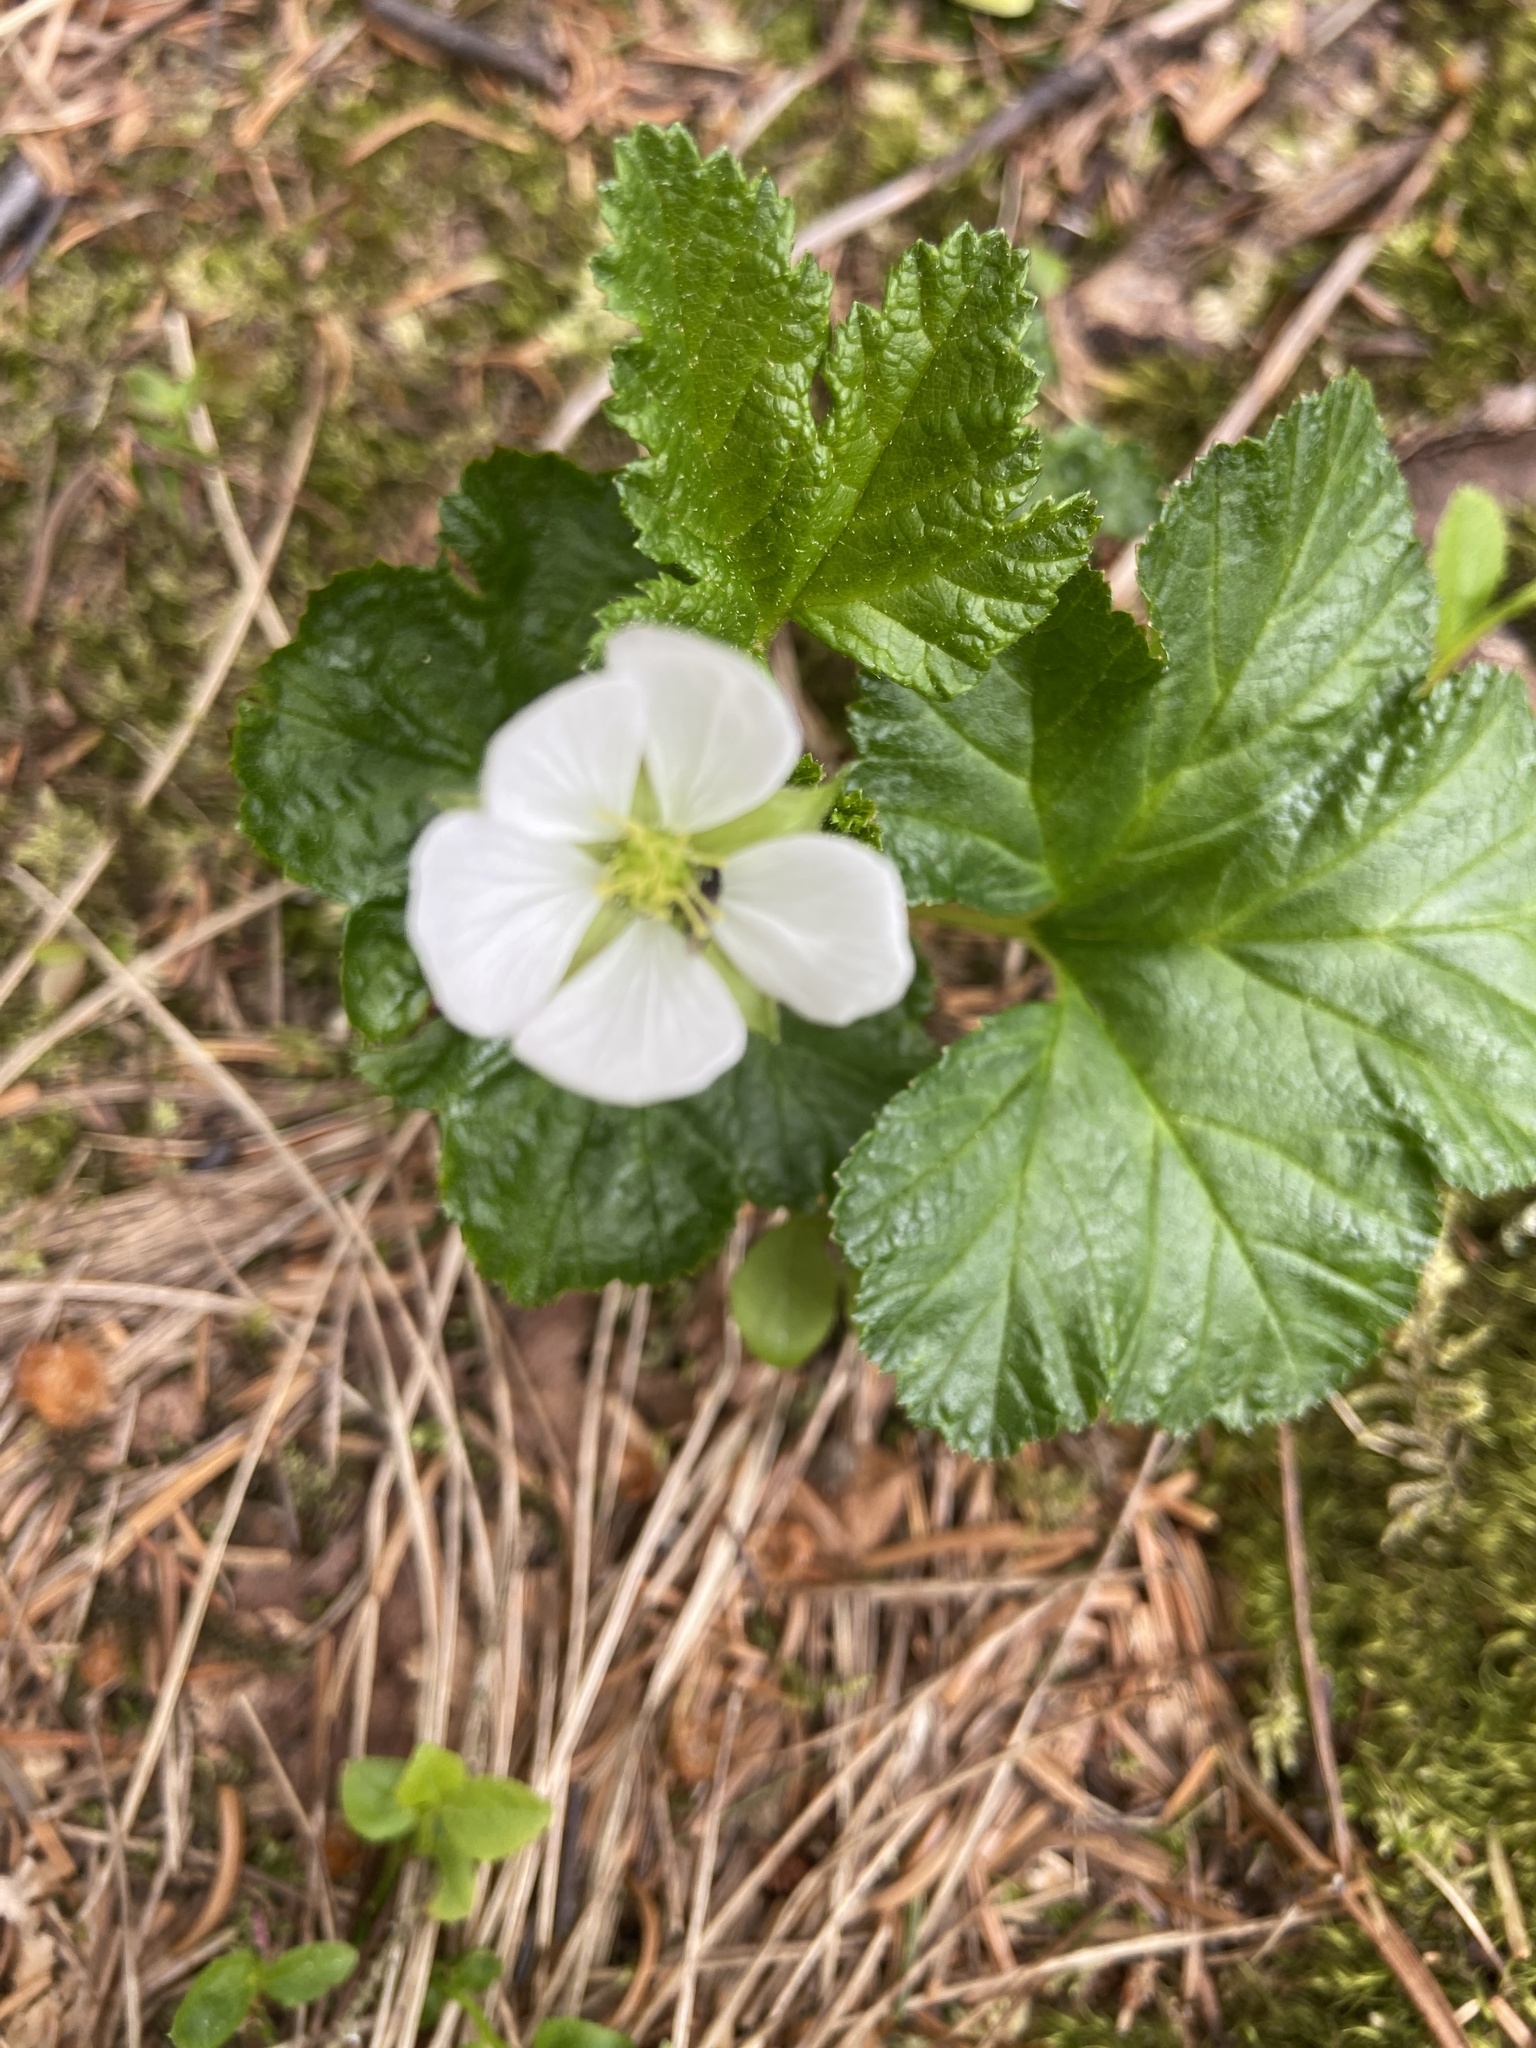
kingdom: Plantae
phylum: Tracheophyta
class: Magnoliopsida
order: Rosales
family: Rosaceae
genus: Rubus
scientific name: Rubus chamaemorus
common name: Cloudberry
